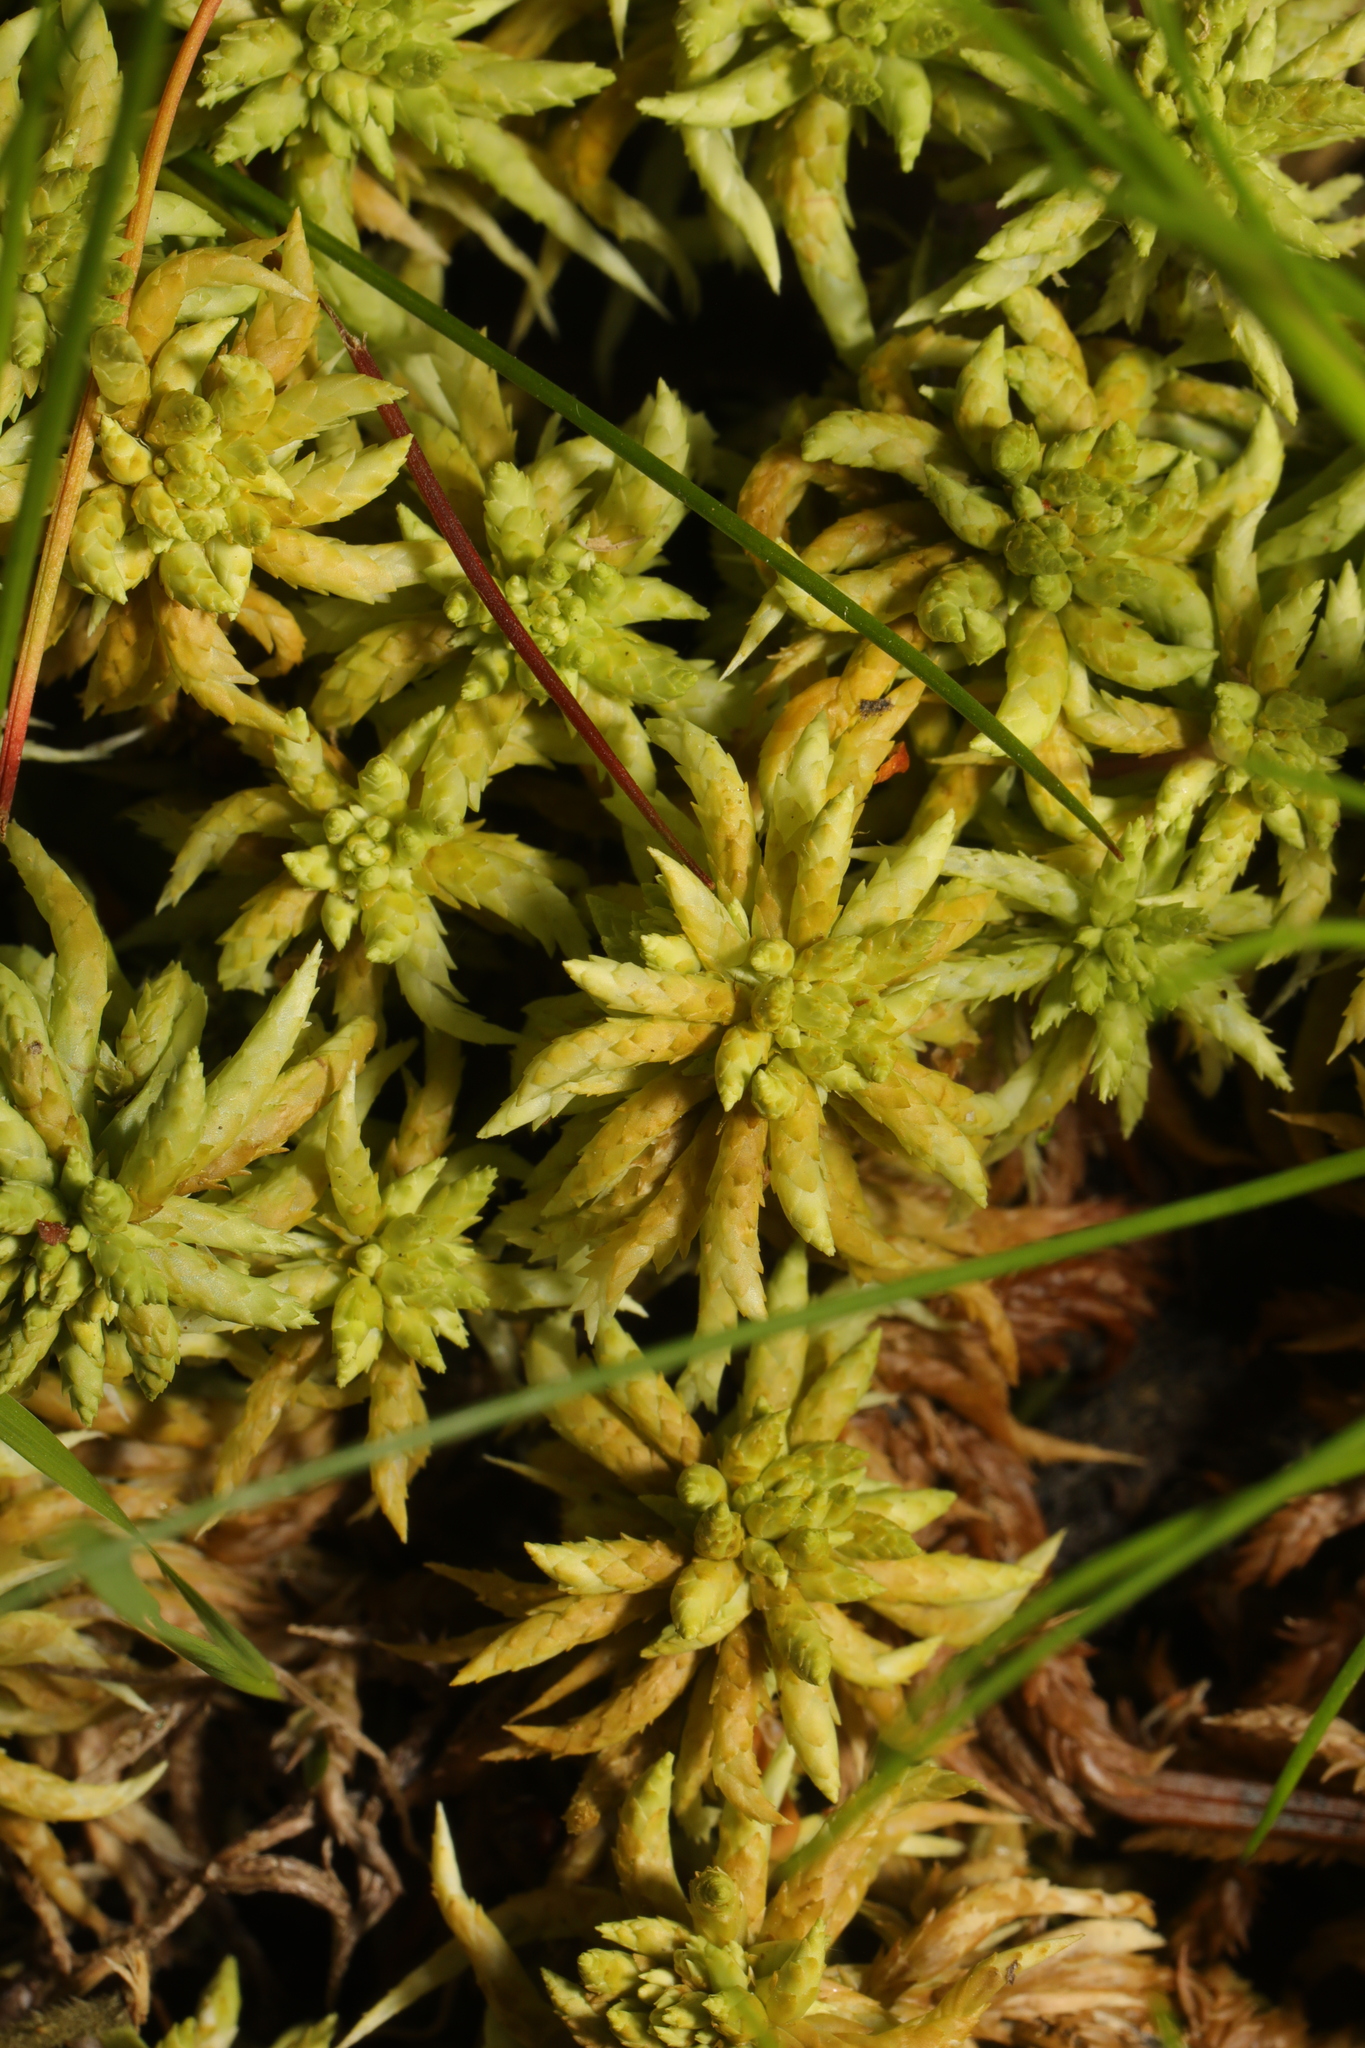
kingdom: Plantae
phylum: Bryophyta
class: Sphagnopsida
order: Sphagnales
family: Sphagnaceae
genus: Sphagnum
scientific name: Sphagnum papillosum
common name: Papillose peat moss
